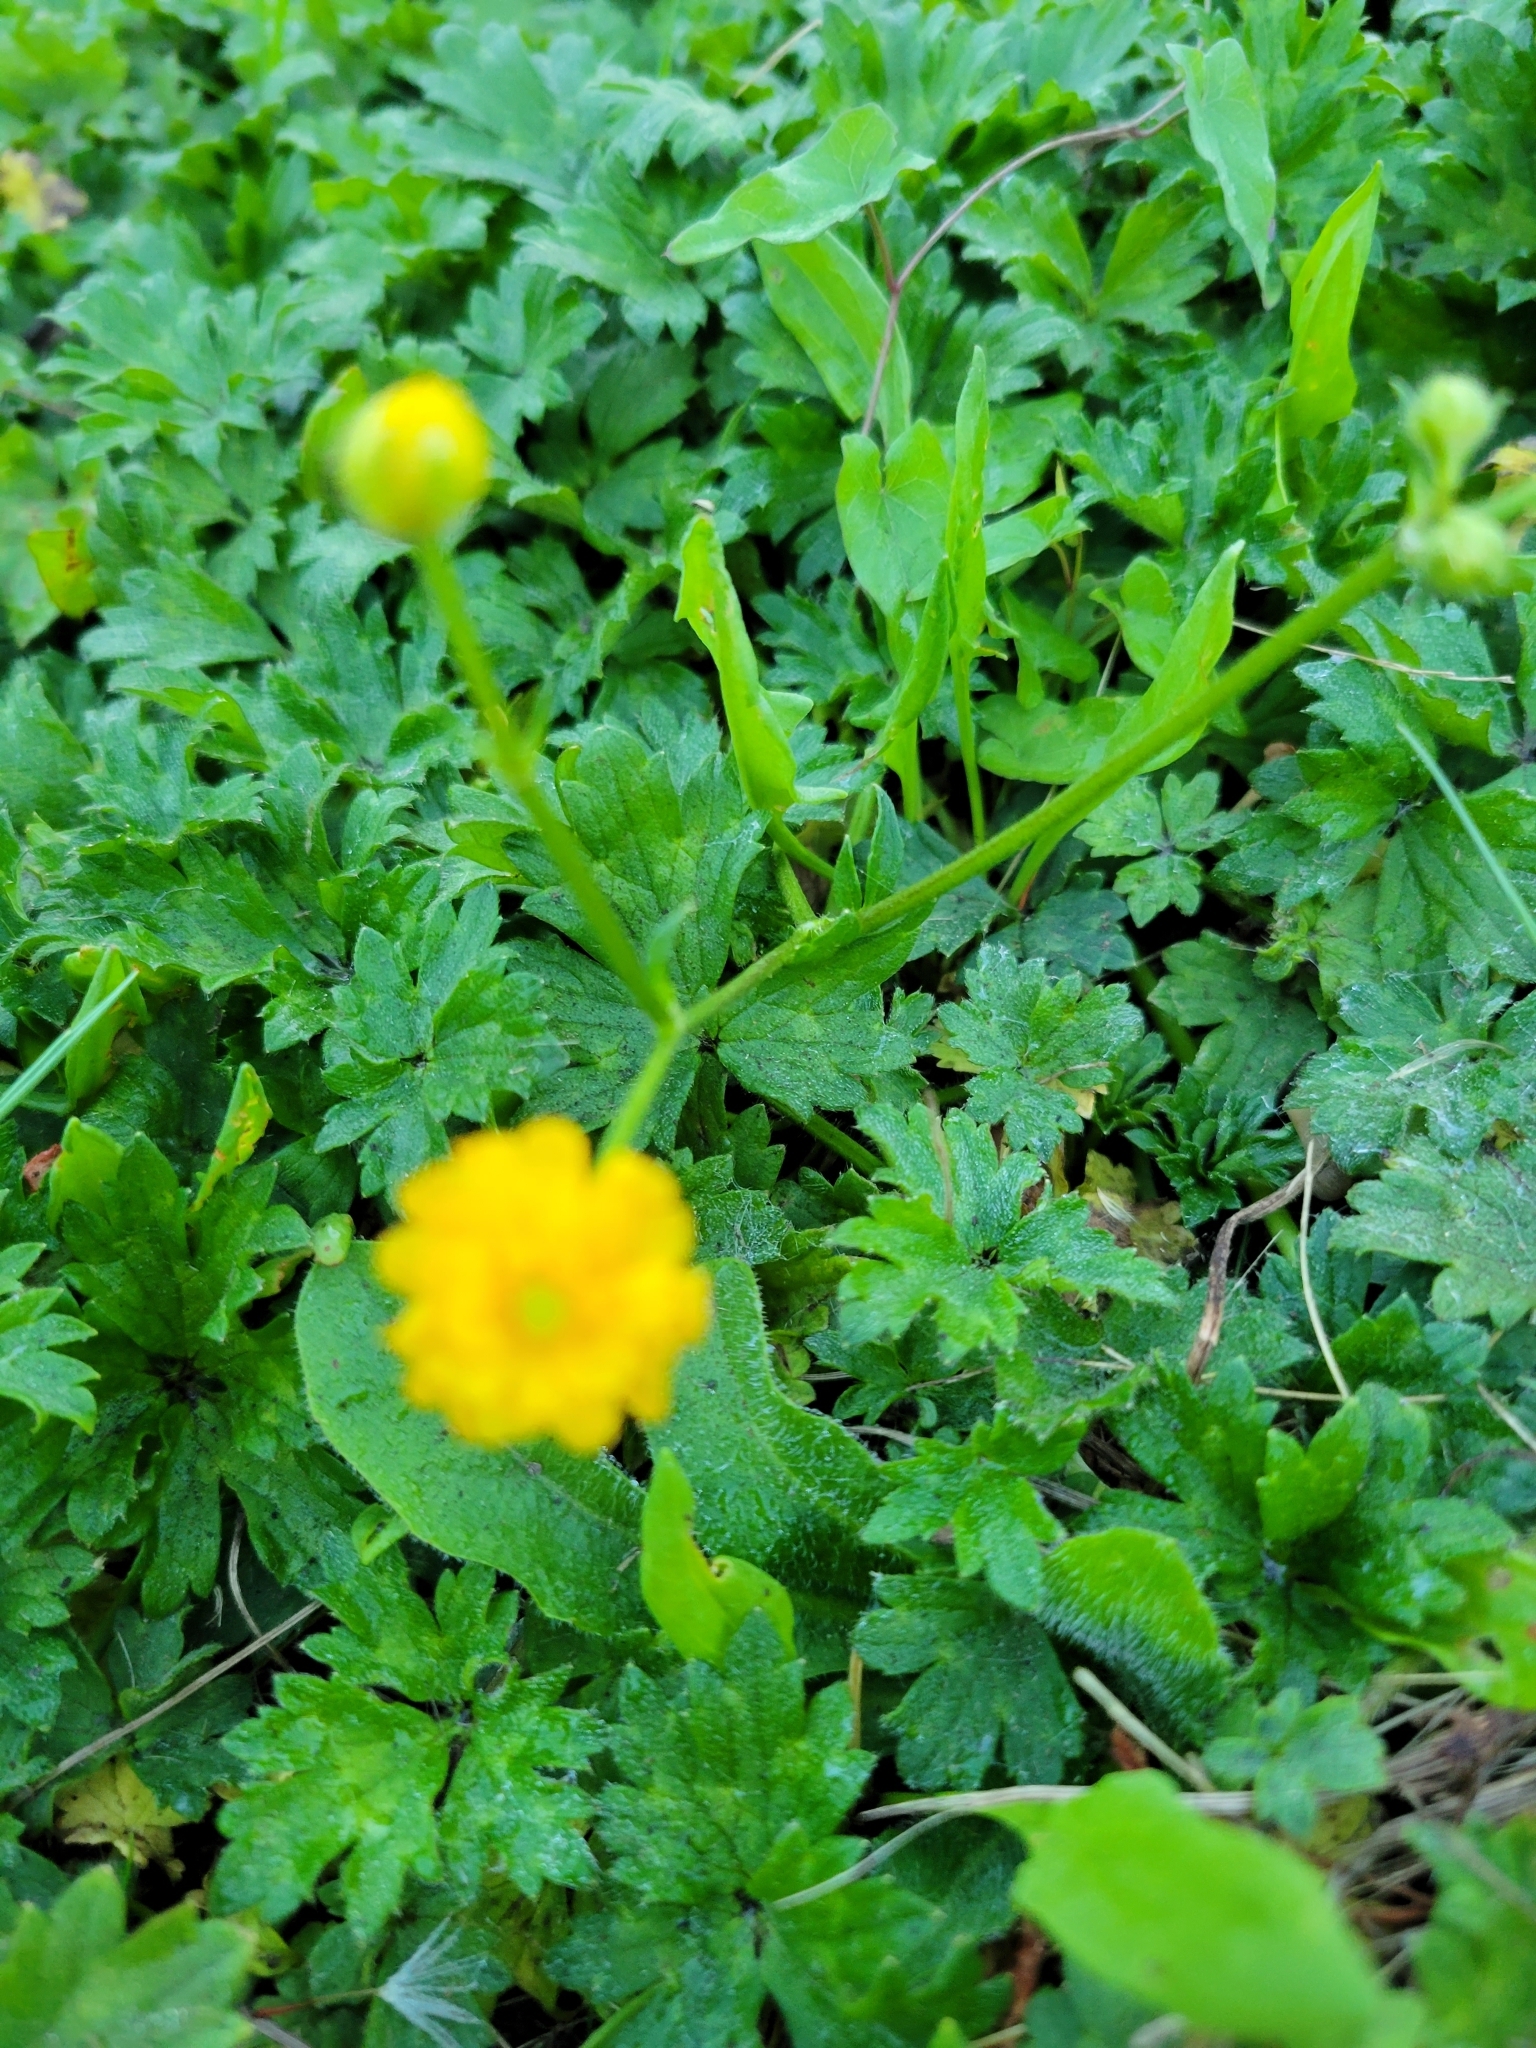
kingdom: Plantae
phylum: Tracheophyta
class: Magnoliopsida
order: Ranunculales
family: Ranunculaceae
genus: Ranunculus
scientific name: Ranunculus repens
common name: Creeping buttercup
